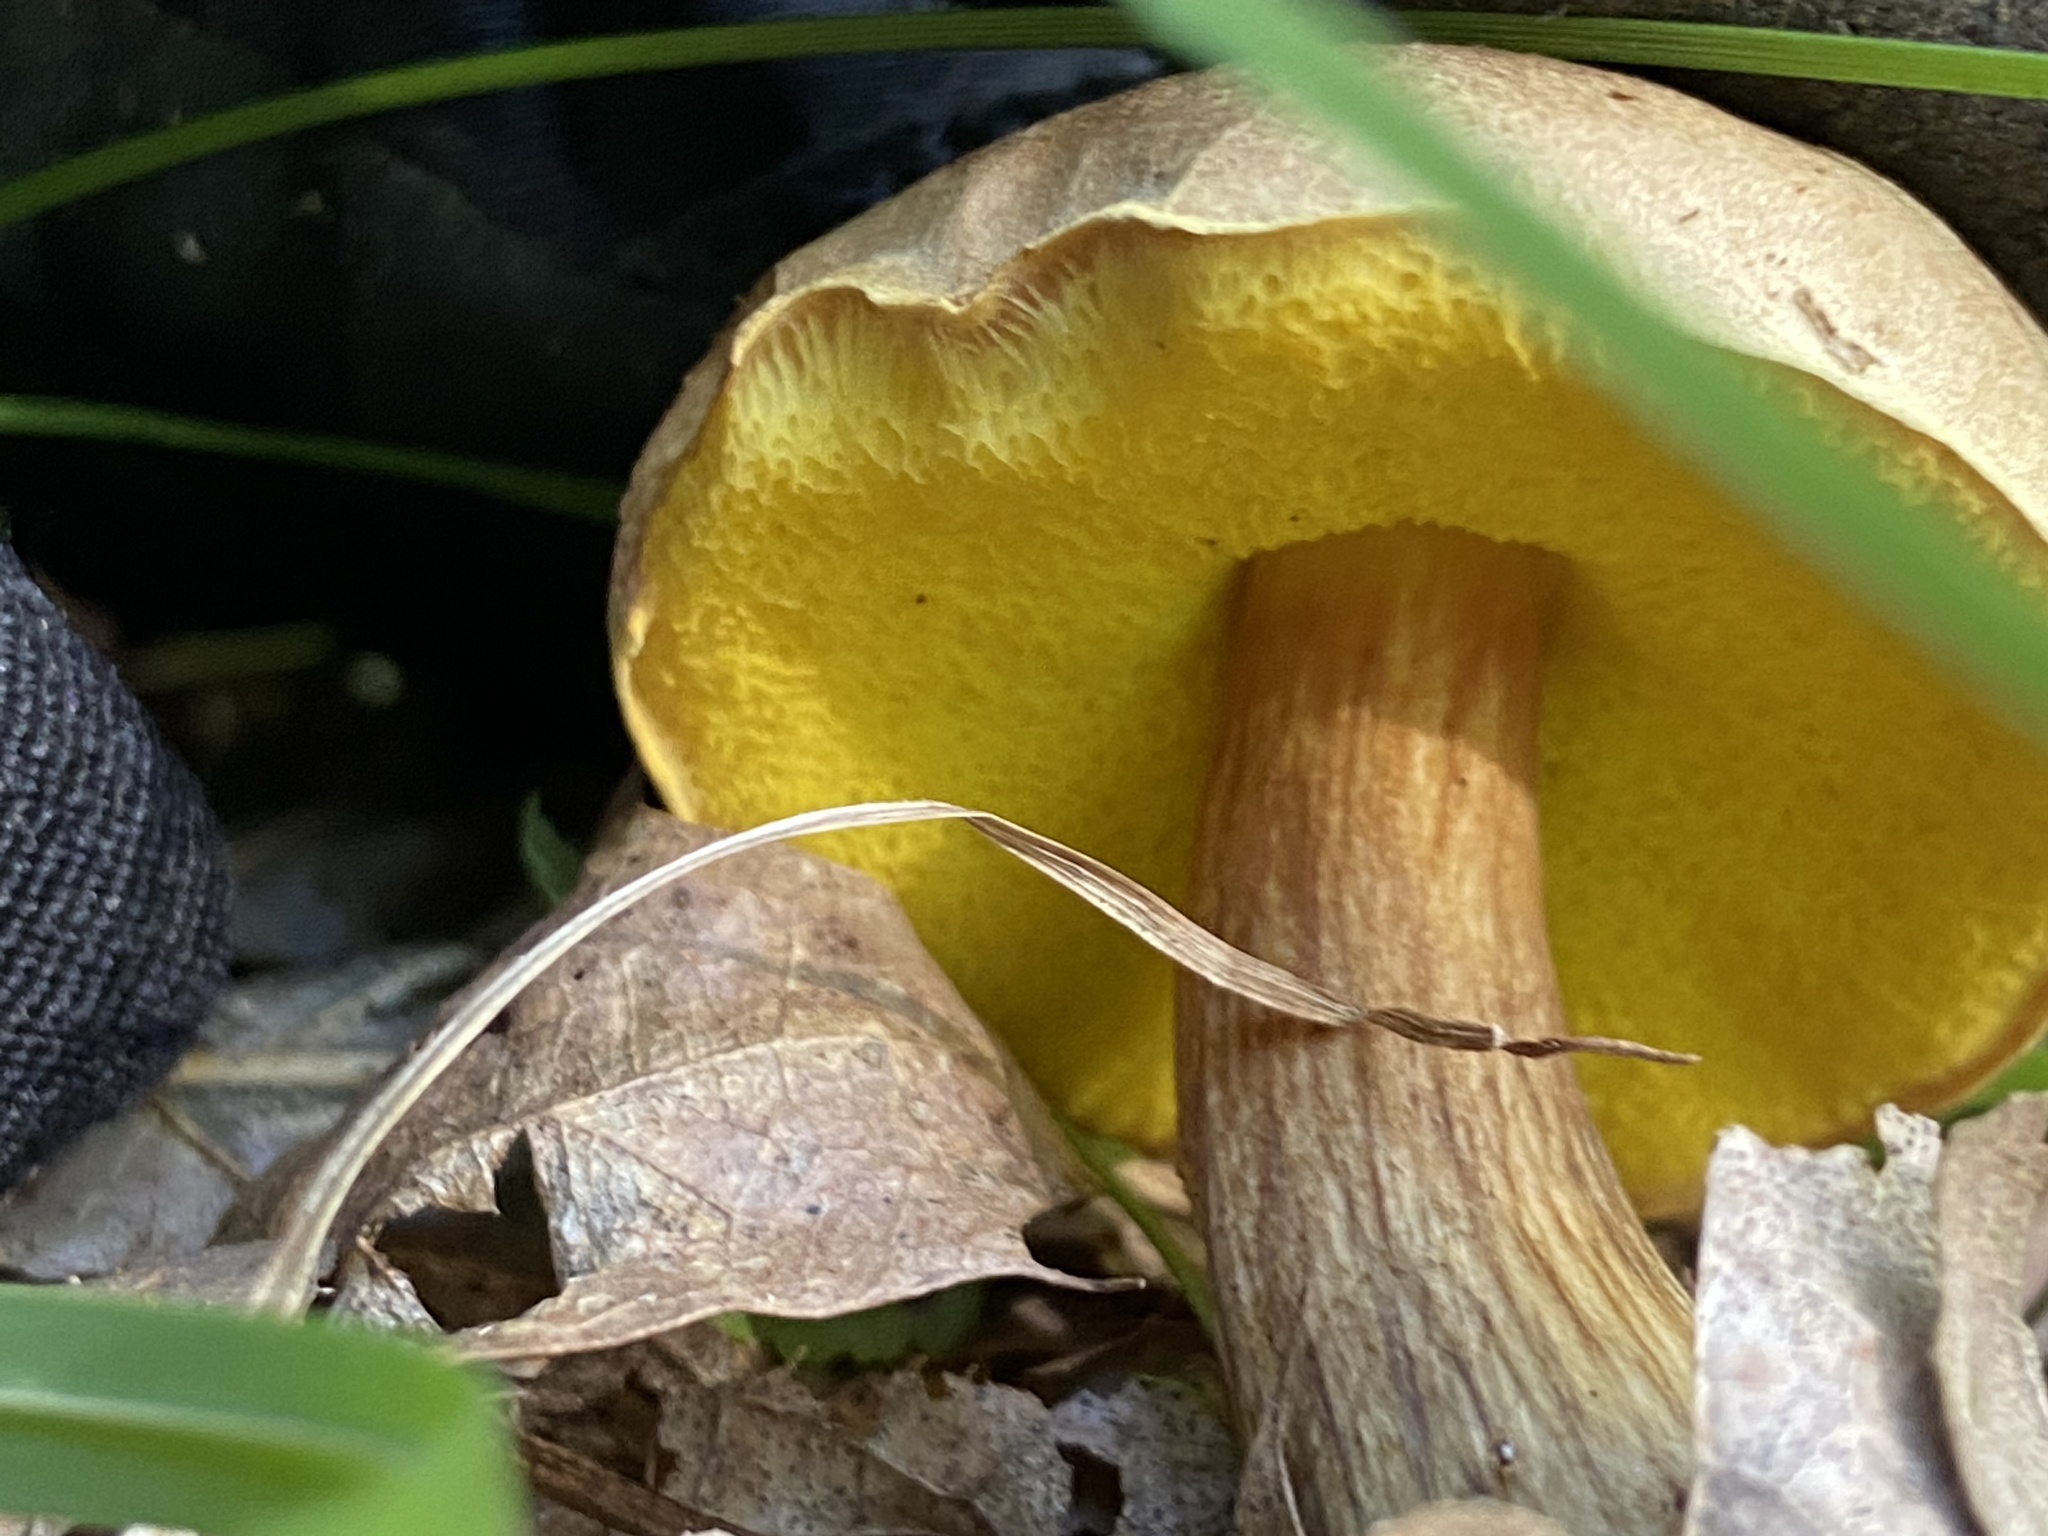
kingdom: Fungi
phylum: Basidiomycota
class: Agaricomycetes
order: Boletales
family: Boletaceae
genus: Aureoboletus
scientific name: Aureoboletus innixus
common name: Clustered brown bolete
